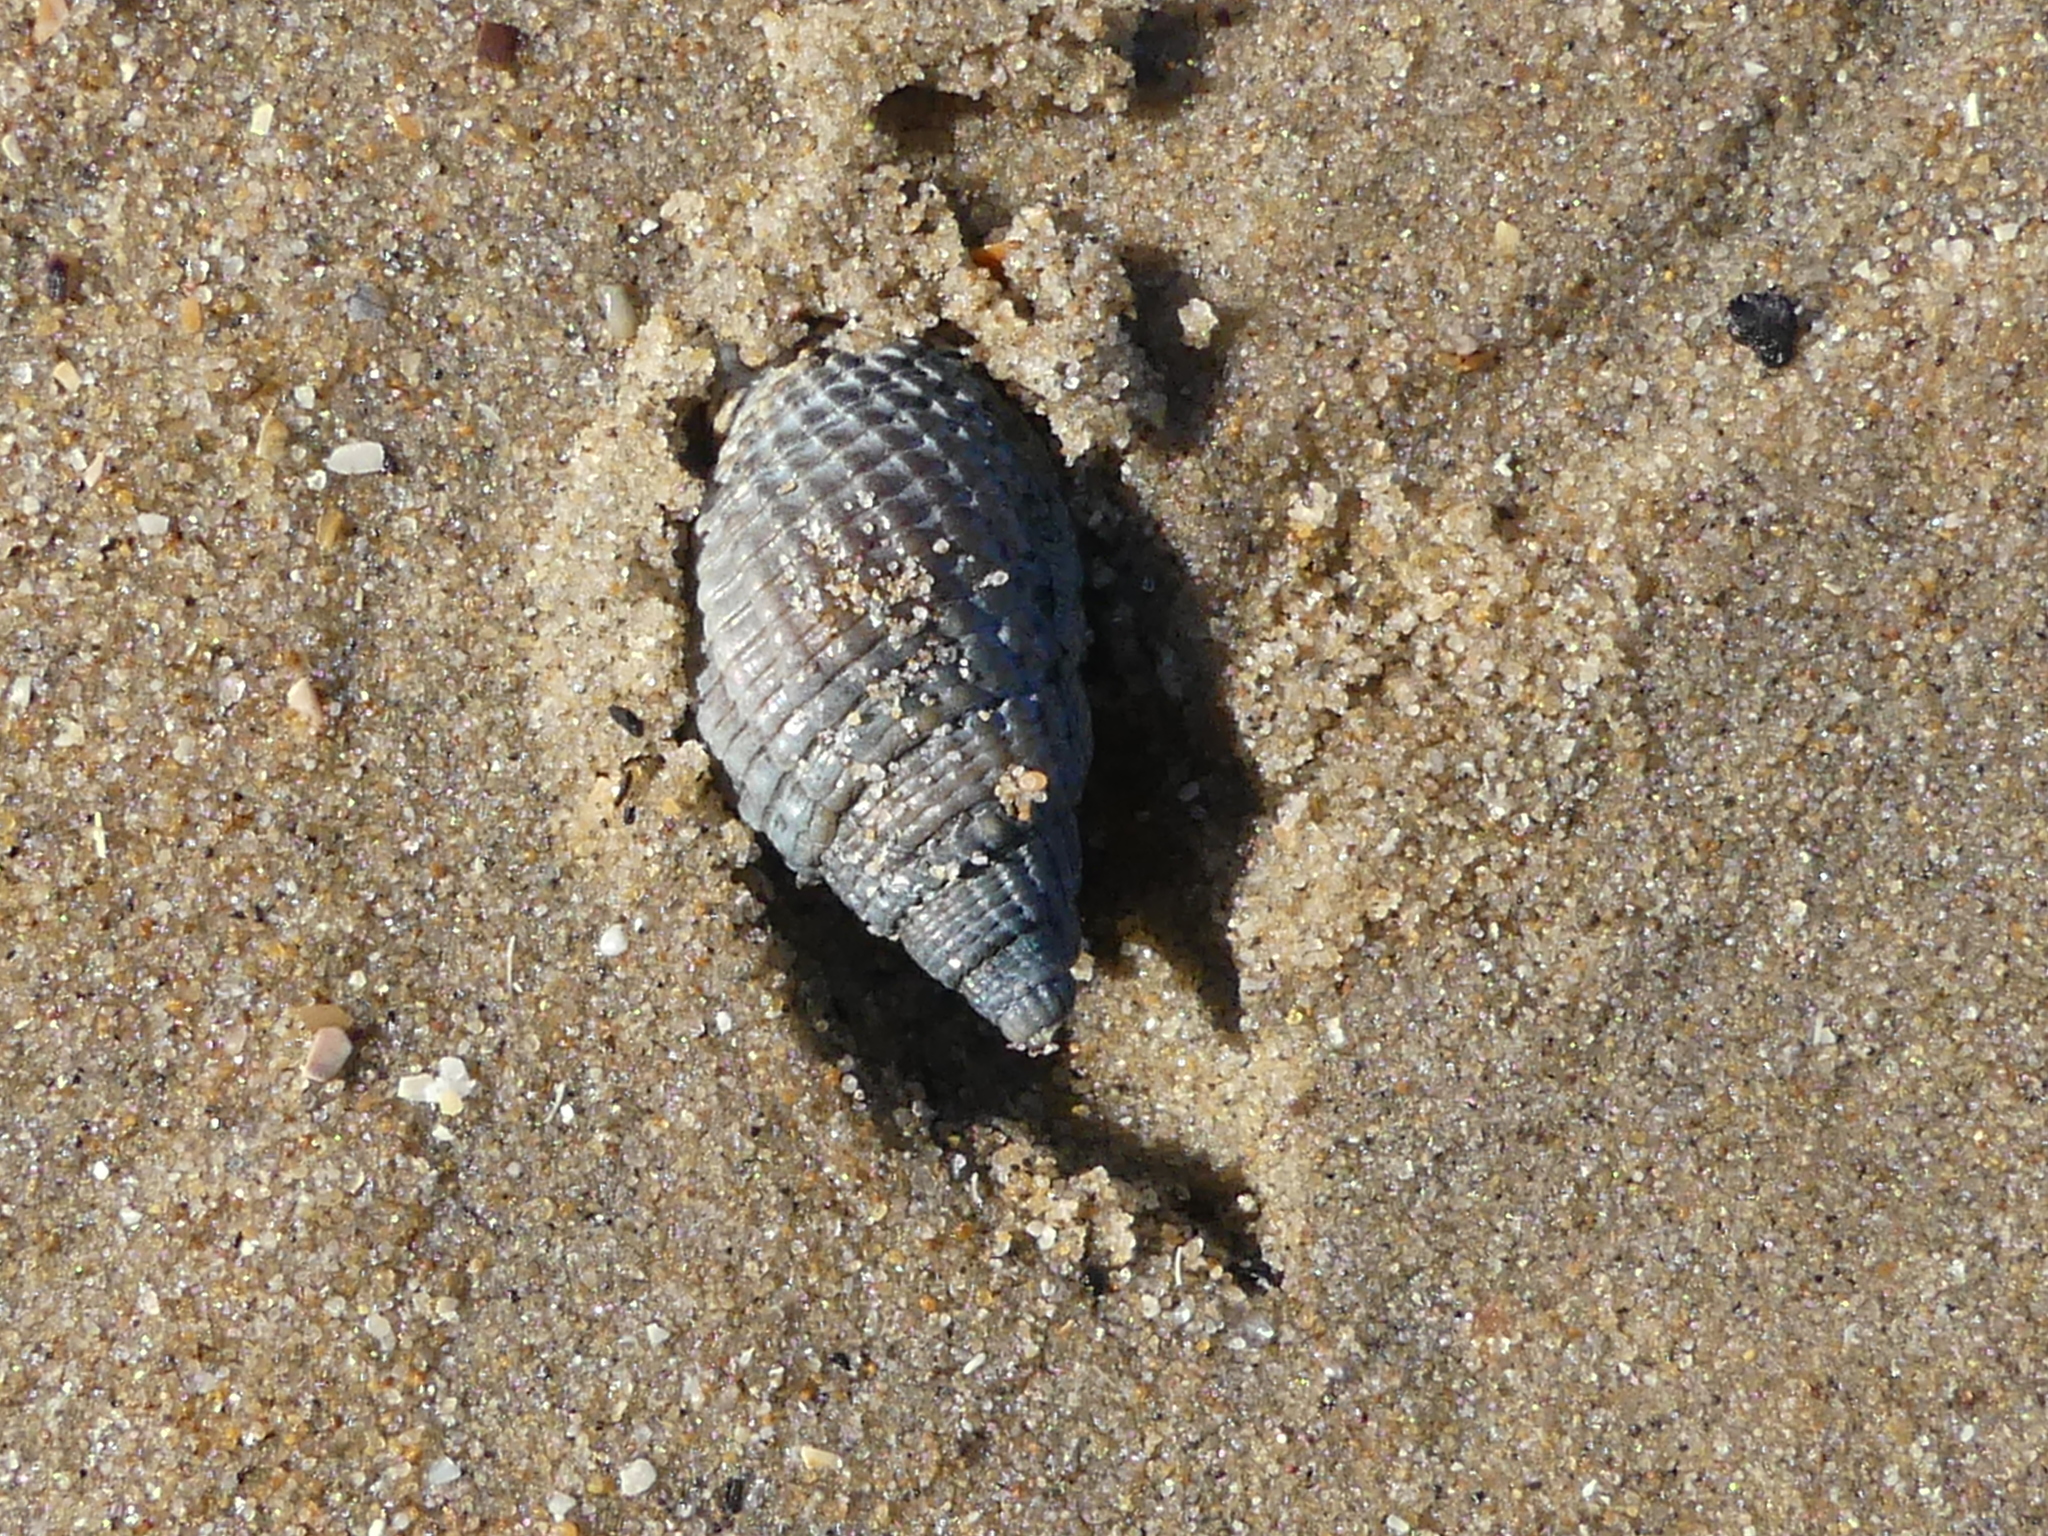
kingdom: Animalia
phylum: Mollusca
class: Gastropoda
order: Neogastropoda
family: Nassariidae
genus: Tritia
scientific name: Tritia reticulata
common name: Netted dog whelk
